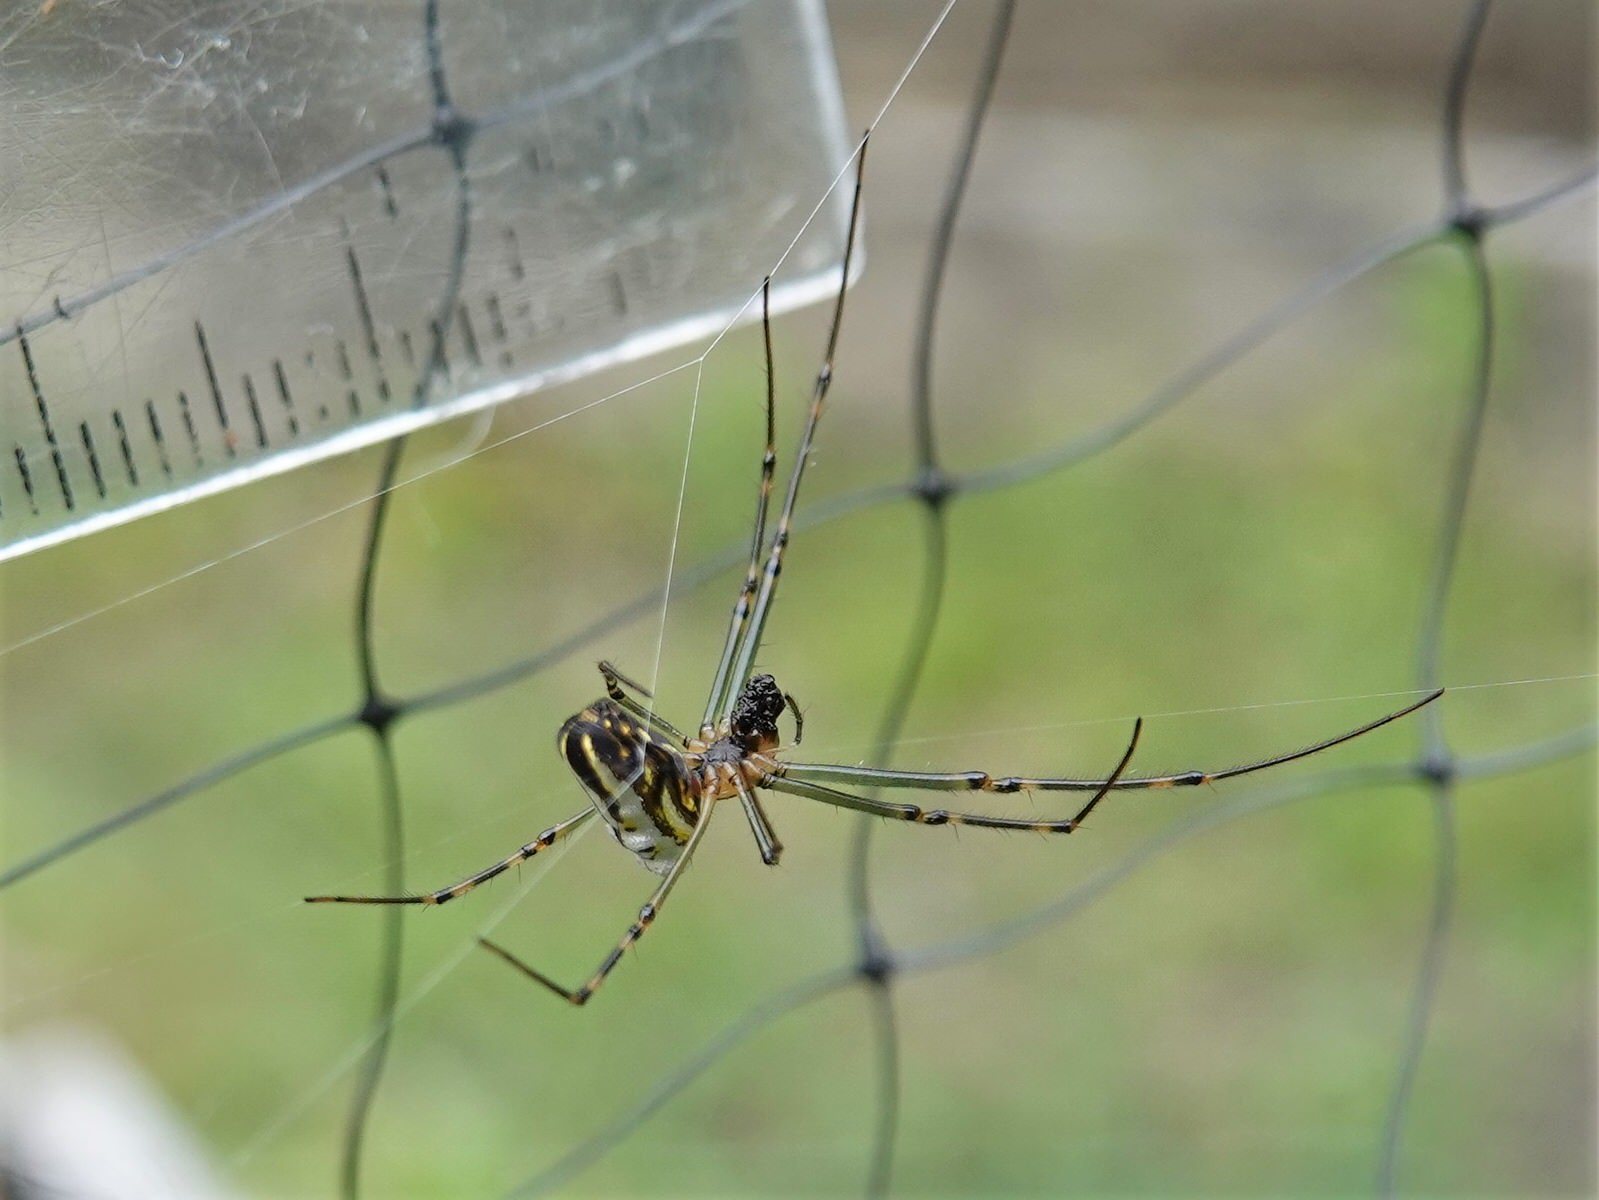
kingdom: Animalia
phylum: Arthropoda
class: Arachnida
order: Araneae
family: Tetragnathidae
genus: Leucauge
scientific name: Leucauge dromedaria
